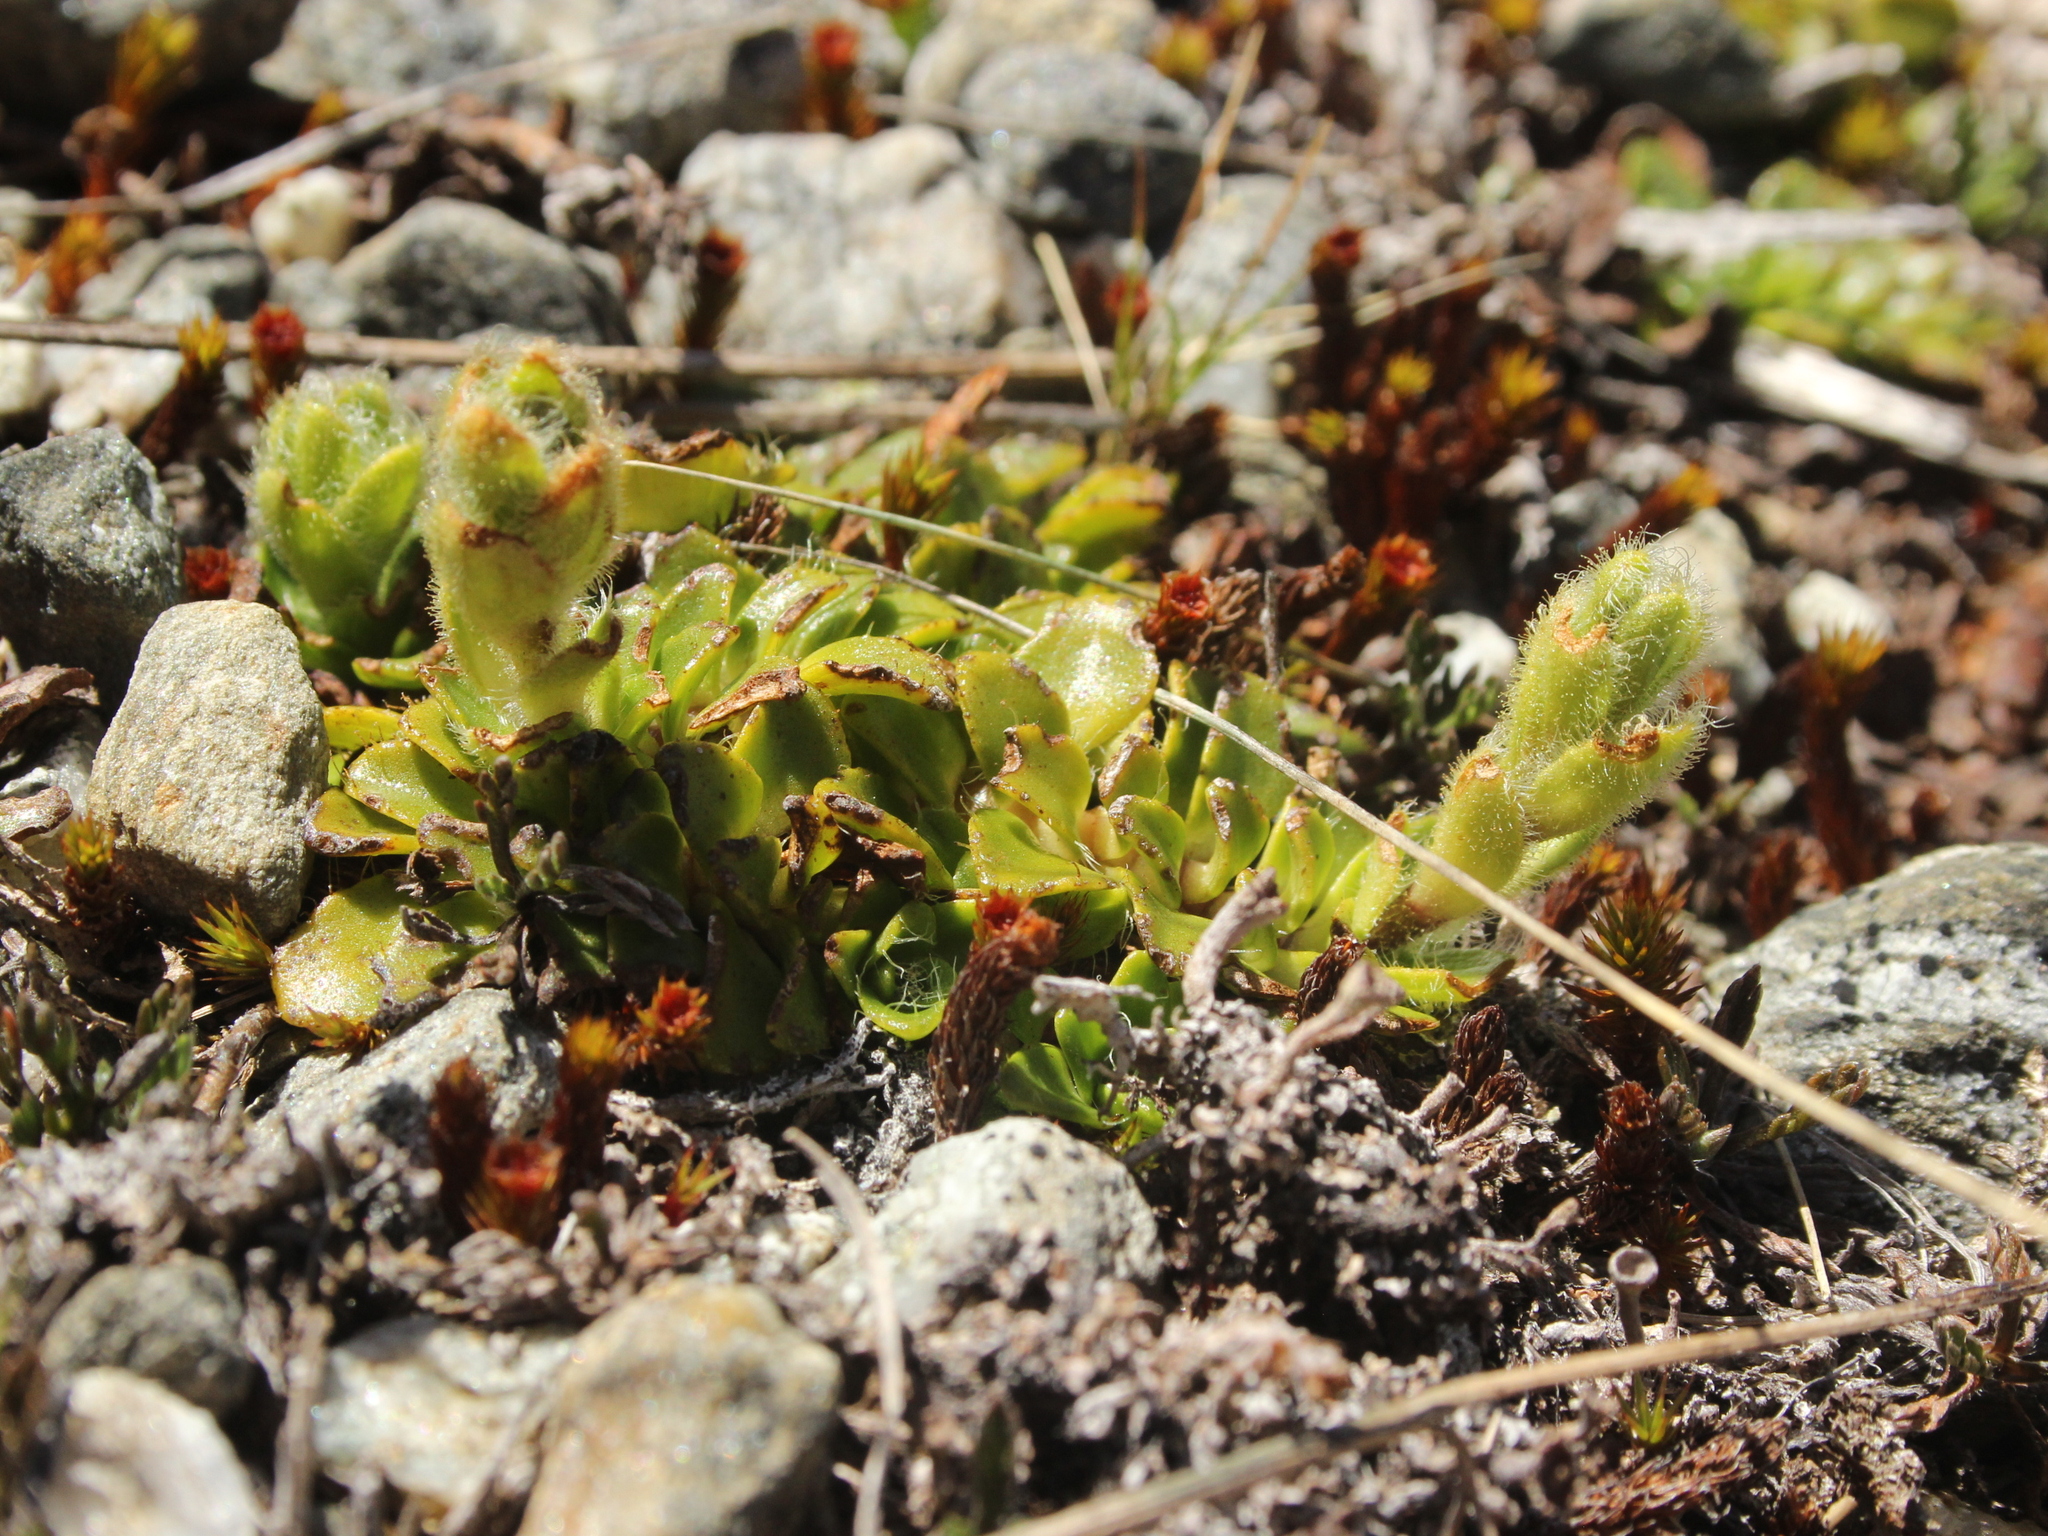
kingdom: Plantae
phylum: Tracheophyta
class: Magnoliopsida
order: Lamiales
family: Plantaginaceae
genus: Ourisia
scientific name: Ourisia glandulosa
